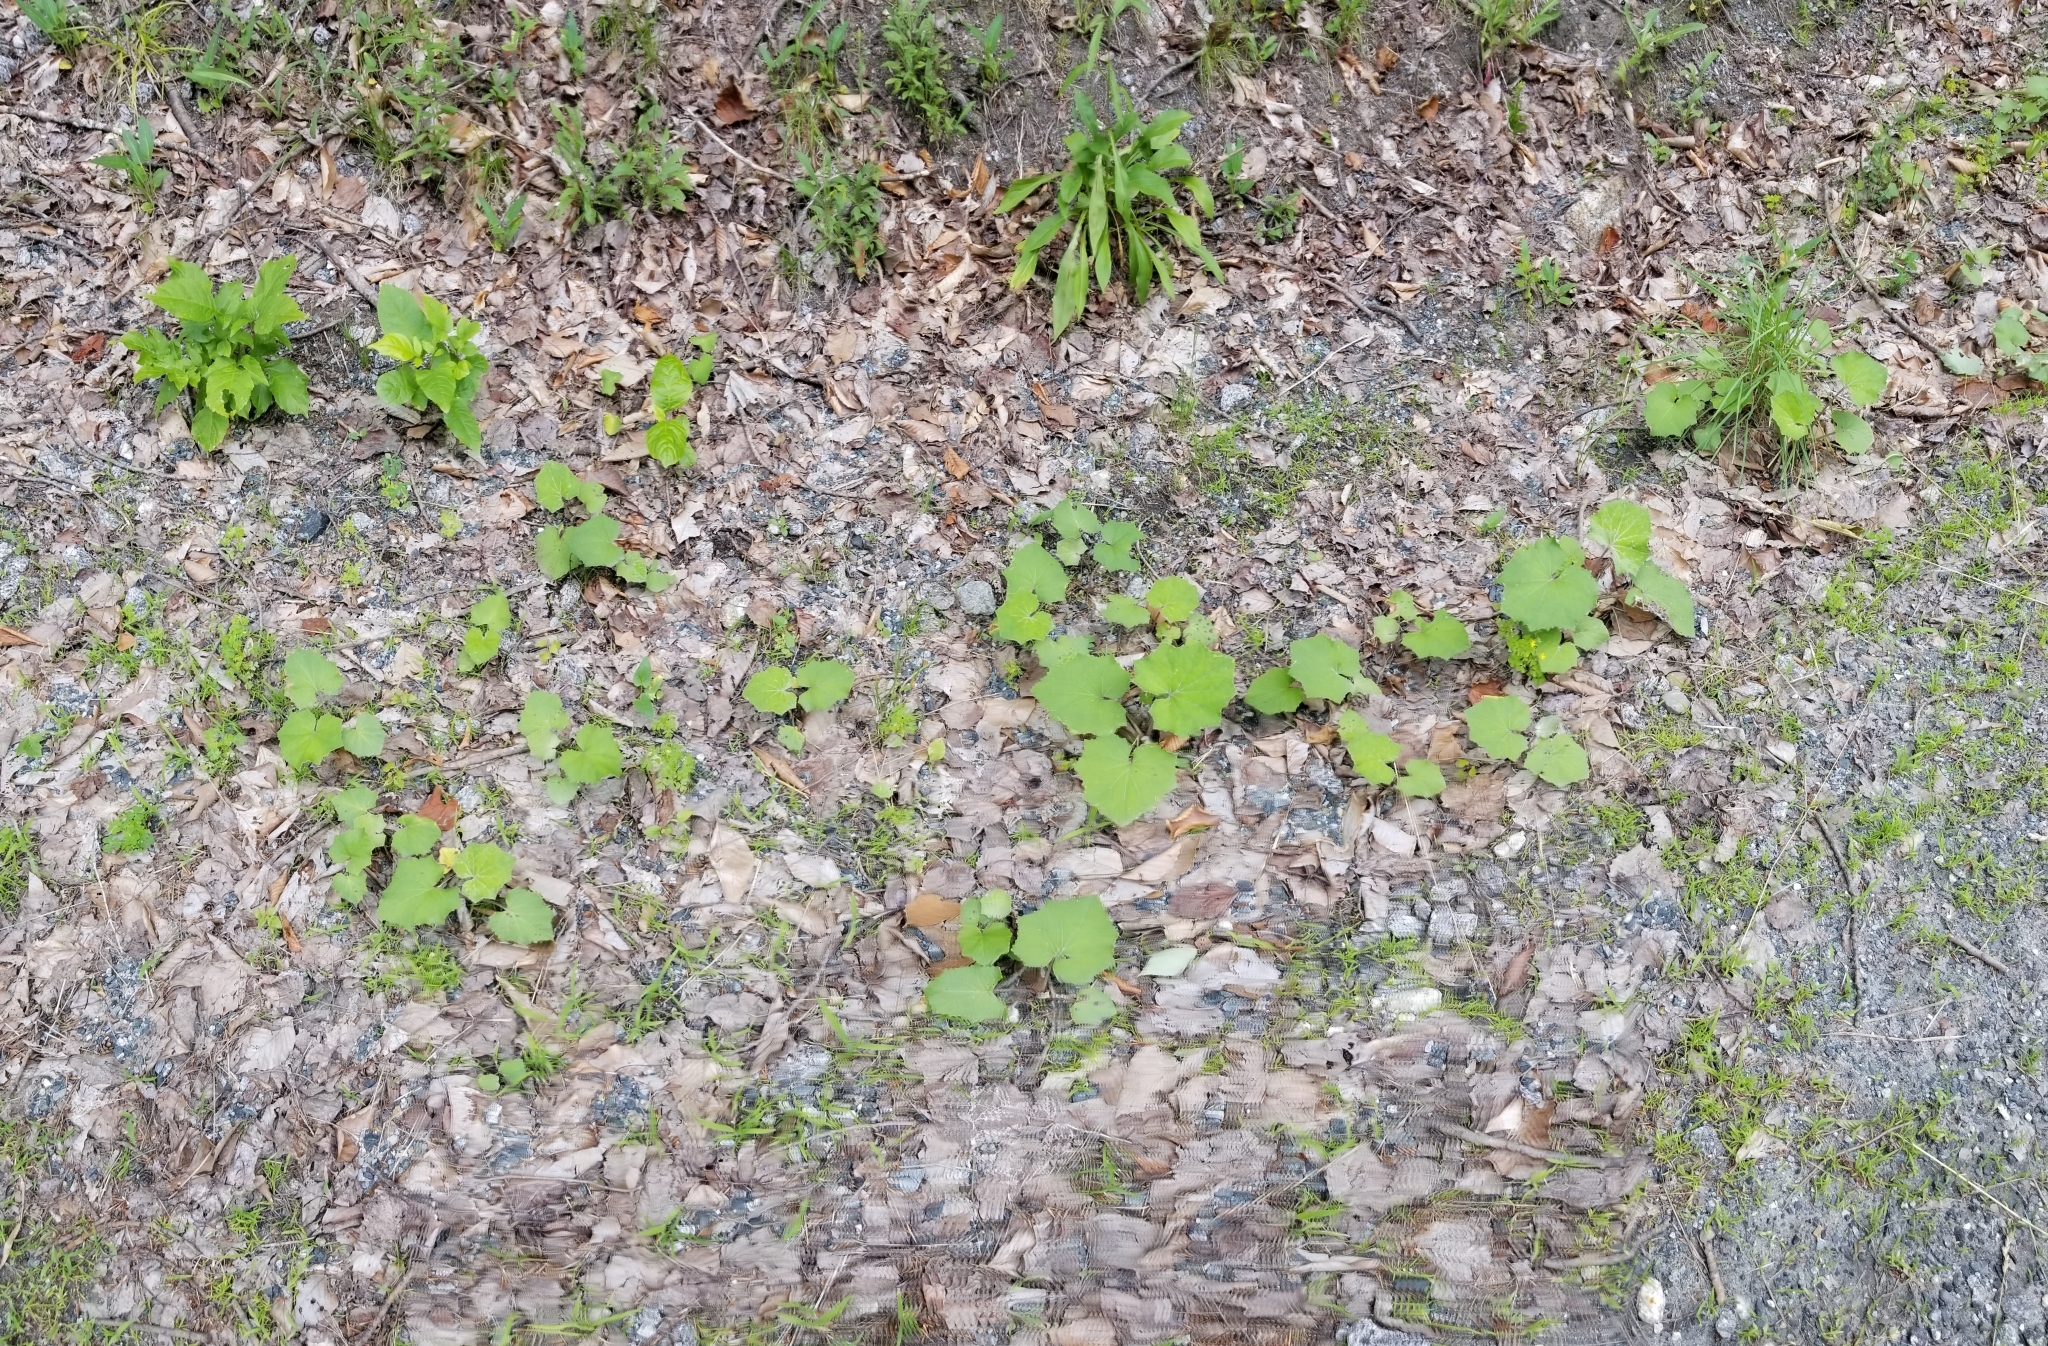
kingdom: Plantae
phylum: Tracheophyta
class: Magnoliopsida
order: Asterales
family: Asteraceae
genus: Tussilago
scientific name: Tussilago farfara
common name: Coltsfoot
